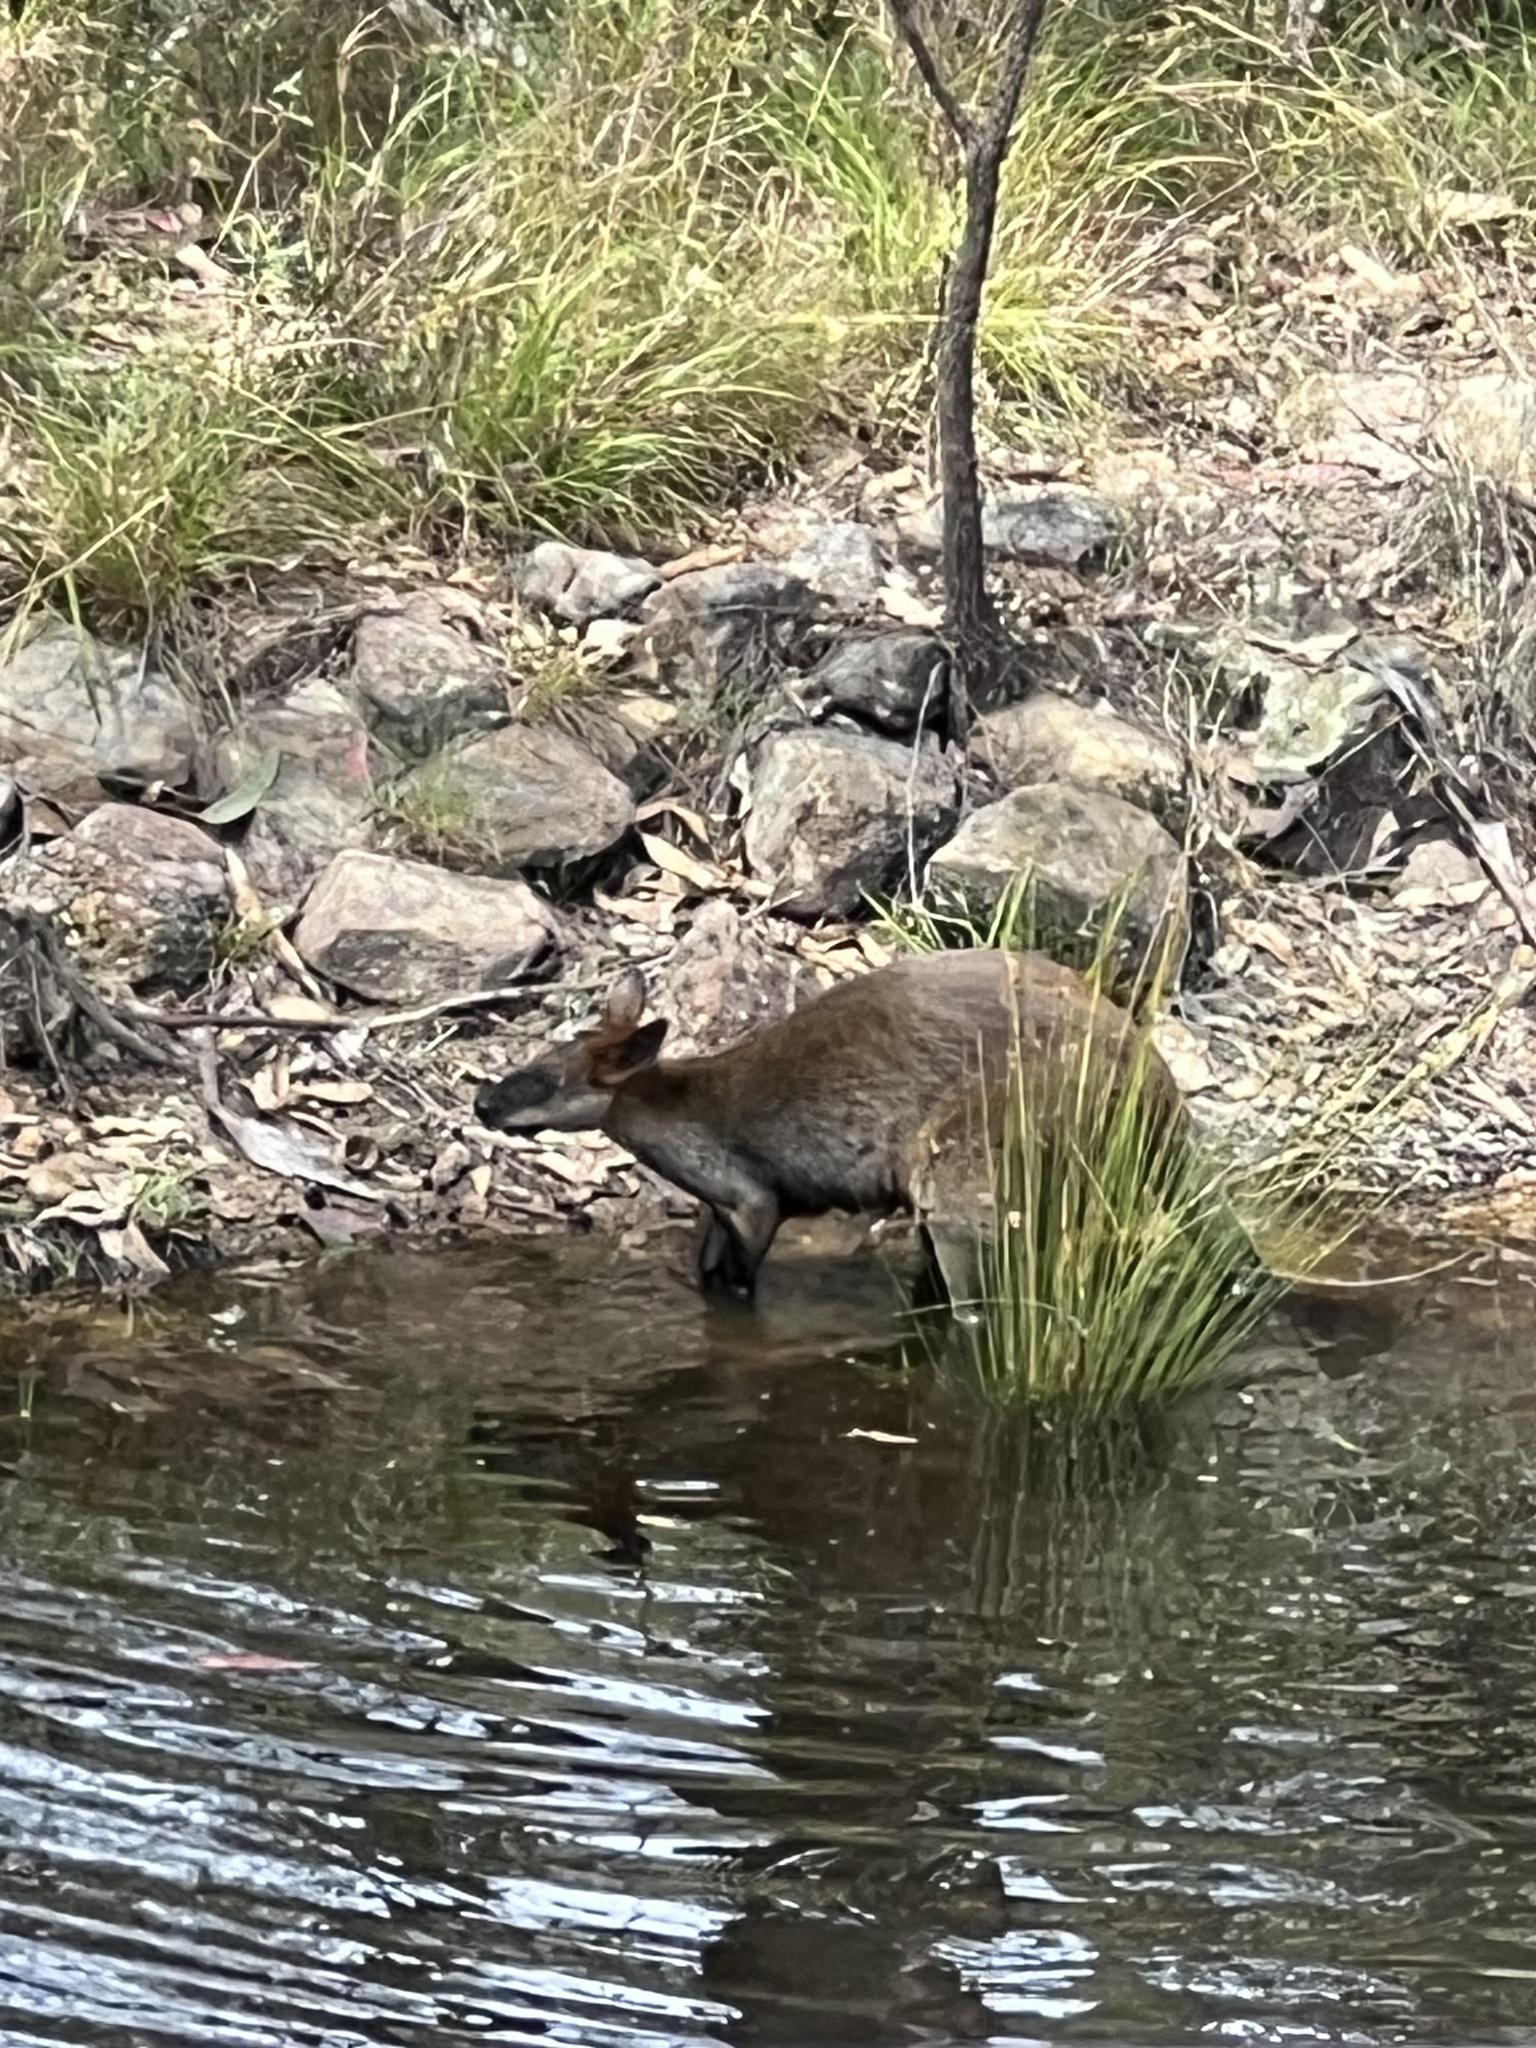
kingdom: Animalia
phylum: Chordata
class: Mammalia
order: Diprotodontia
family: Macropodidae
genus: Wallabia
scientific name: Wallabia bicolor
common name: Swamp wallaby
